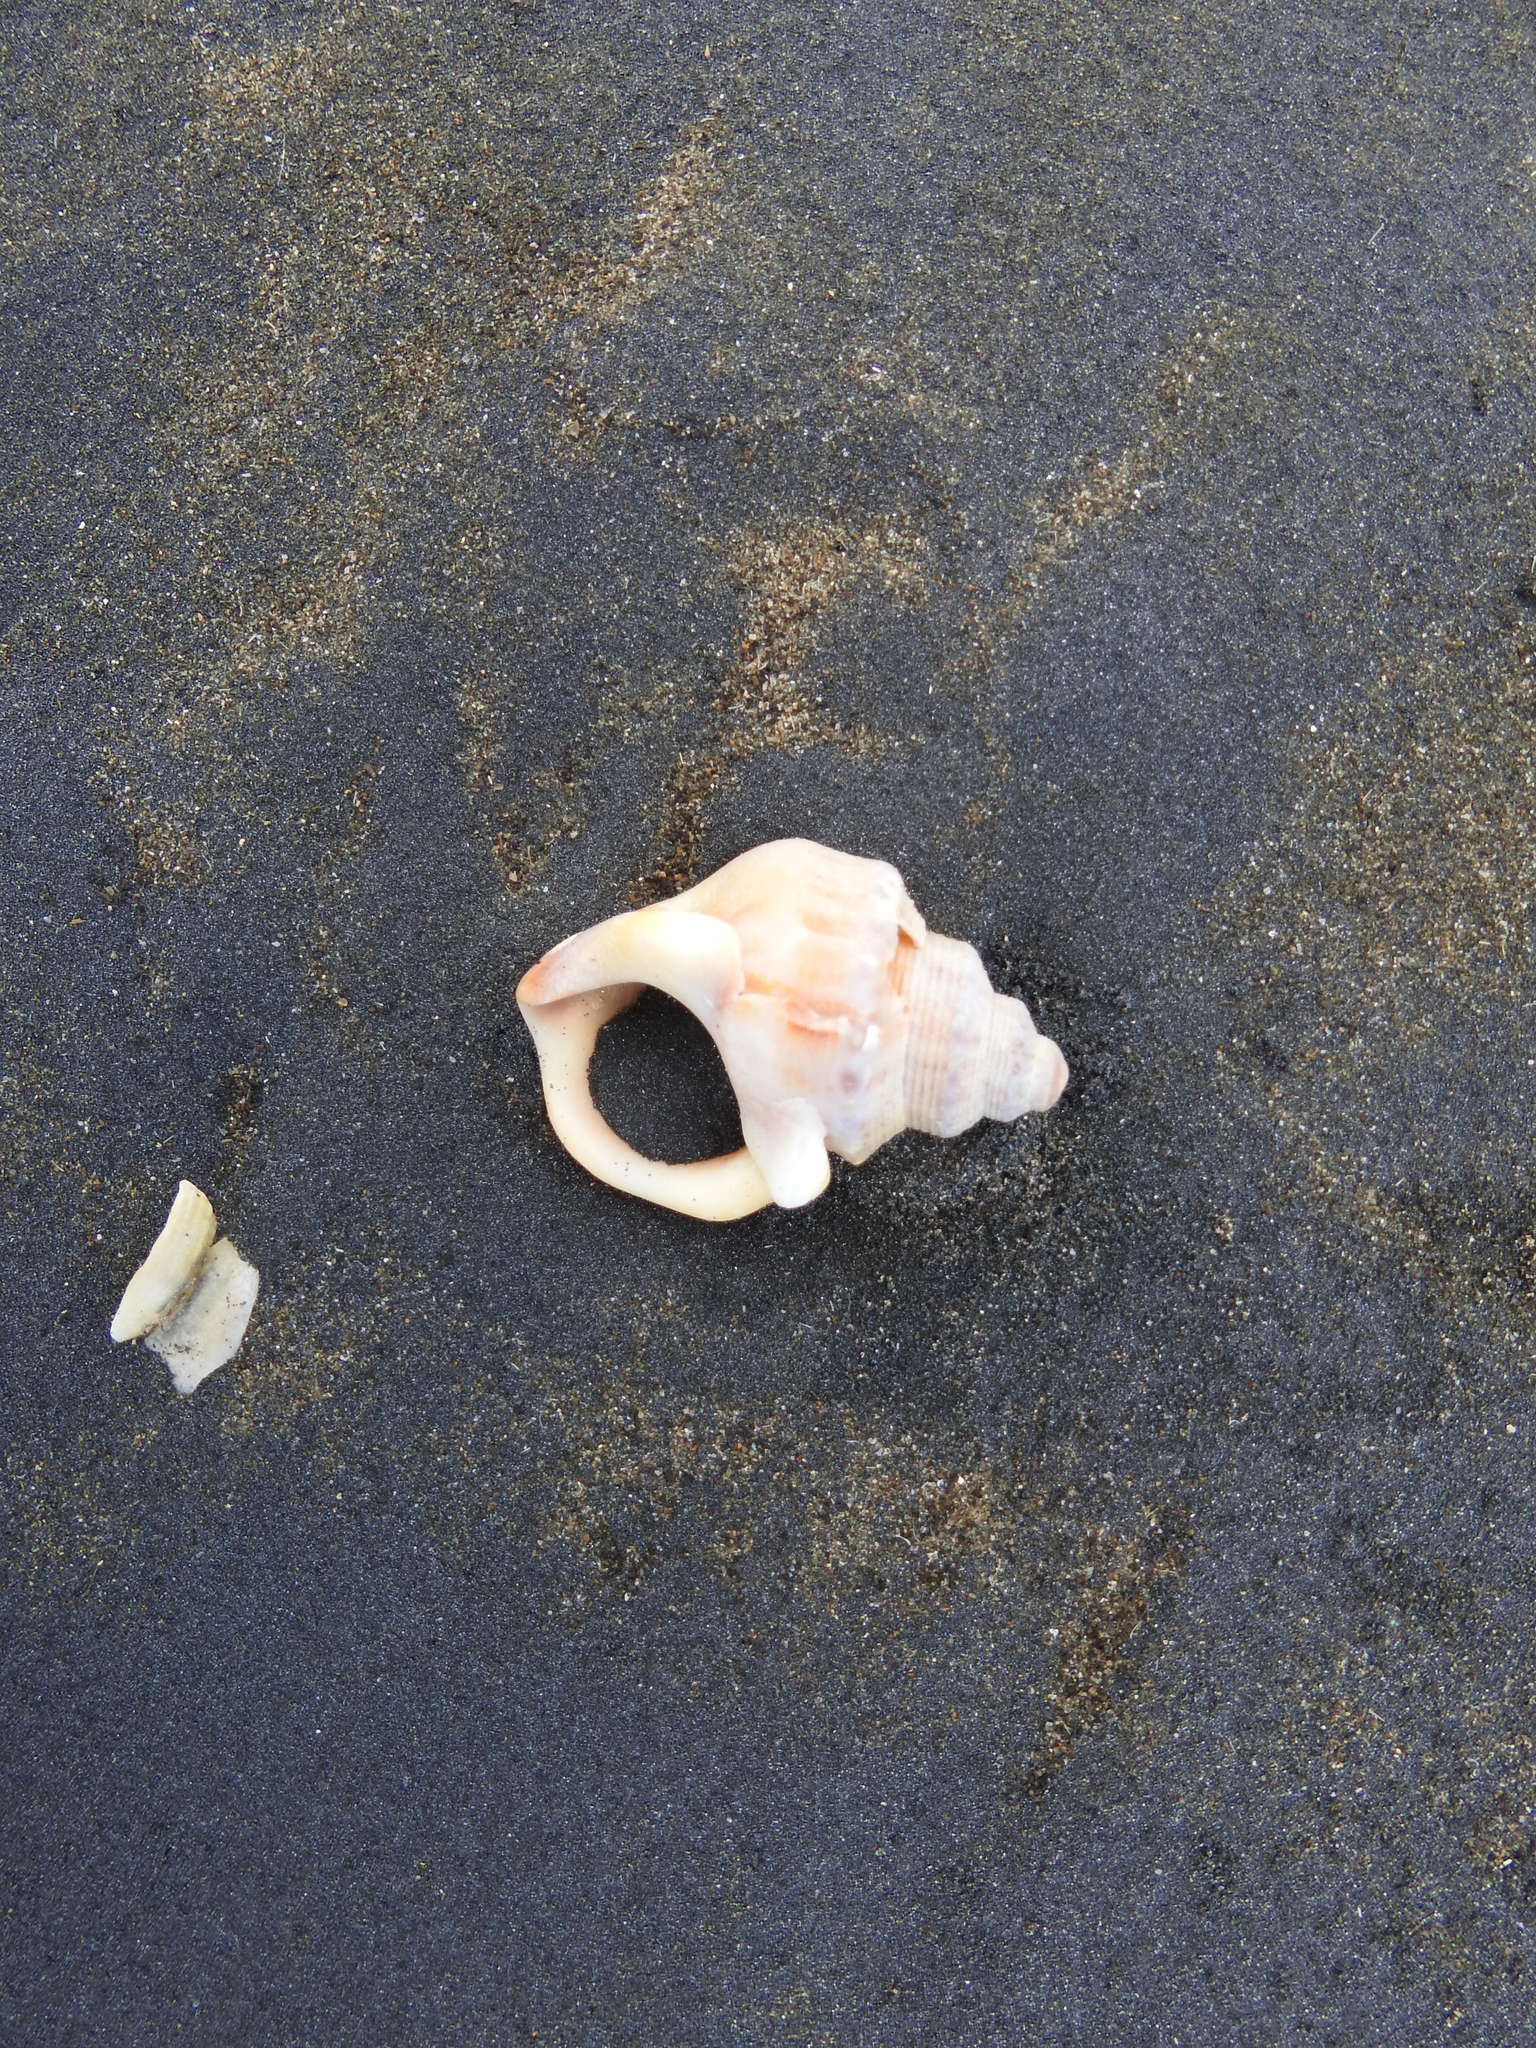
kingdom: Animalia
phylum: Mollusca
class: Gastropoda
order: Littorinimorpha
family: Struthiolariidae
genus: Struthiolaria
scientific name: Struthiolaria papulosa
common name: Large ostrich foot
